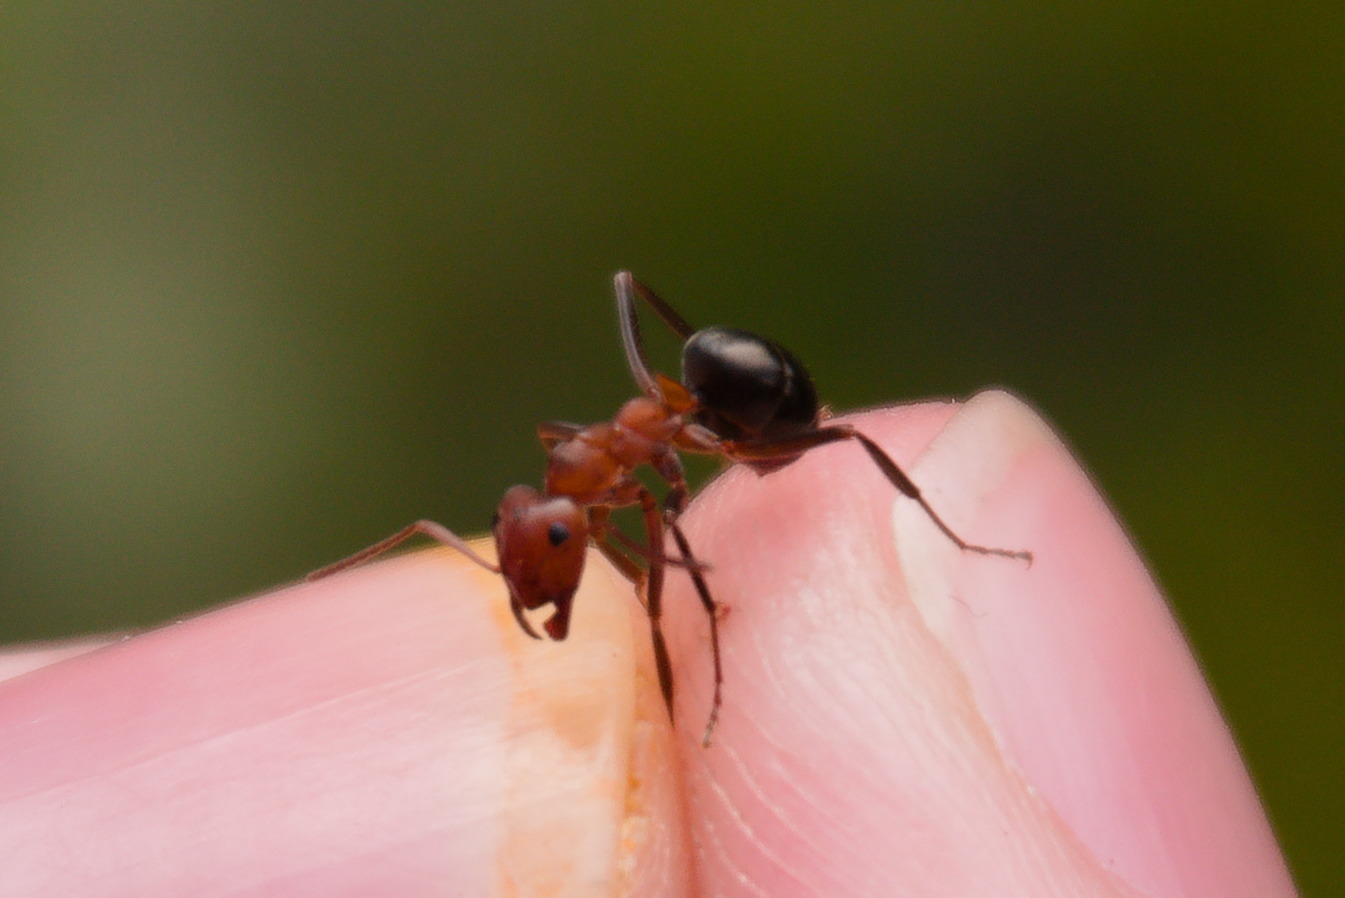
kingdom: Animalia
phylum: Arthropoda
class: Insecta
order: Hymenoptera
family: Formicidae
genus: Formica
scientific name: Formica exsectoides
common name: Allegheny mound ant
